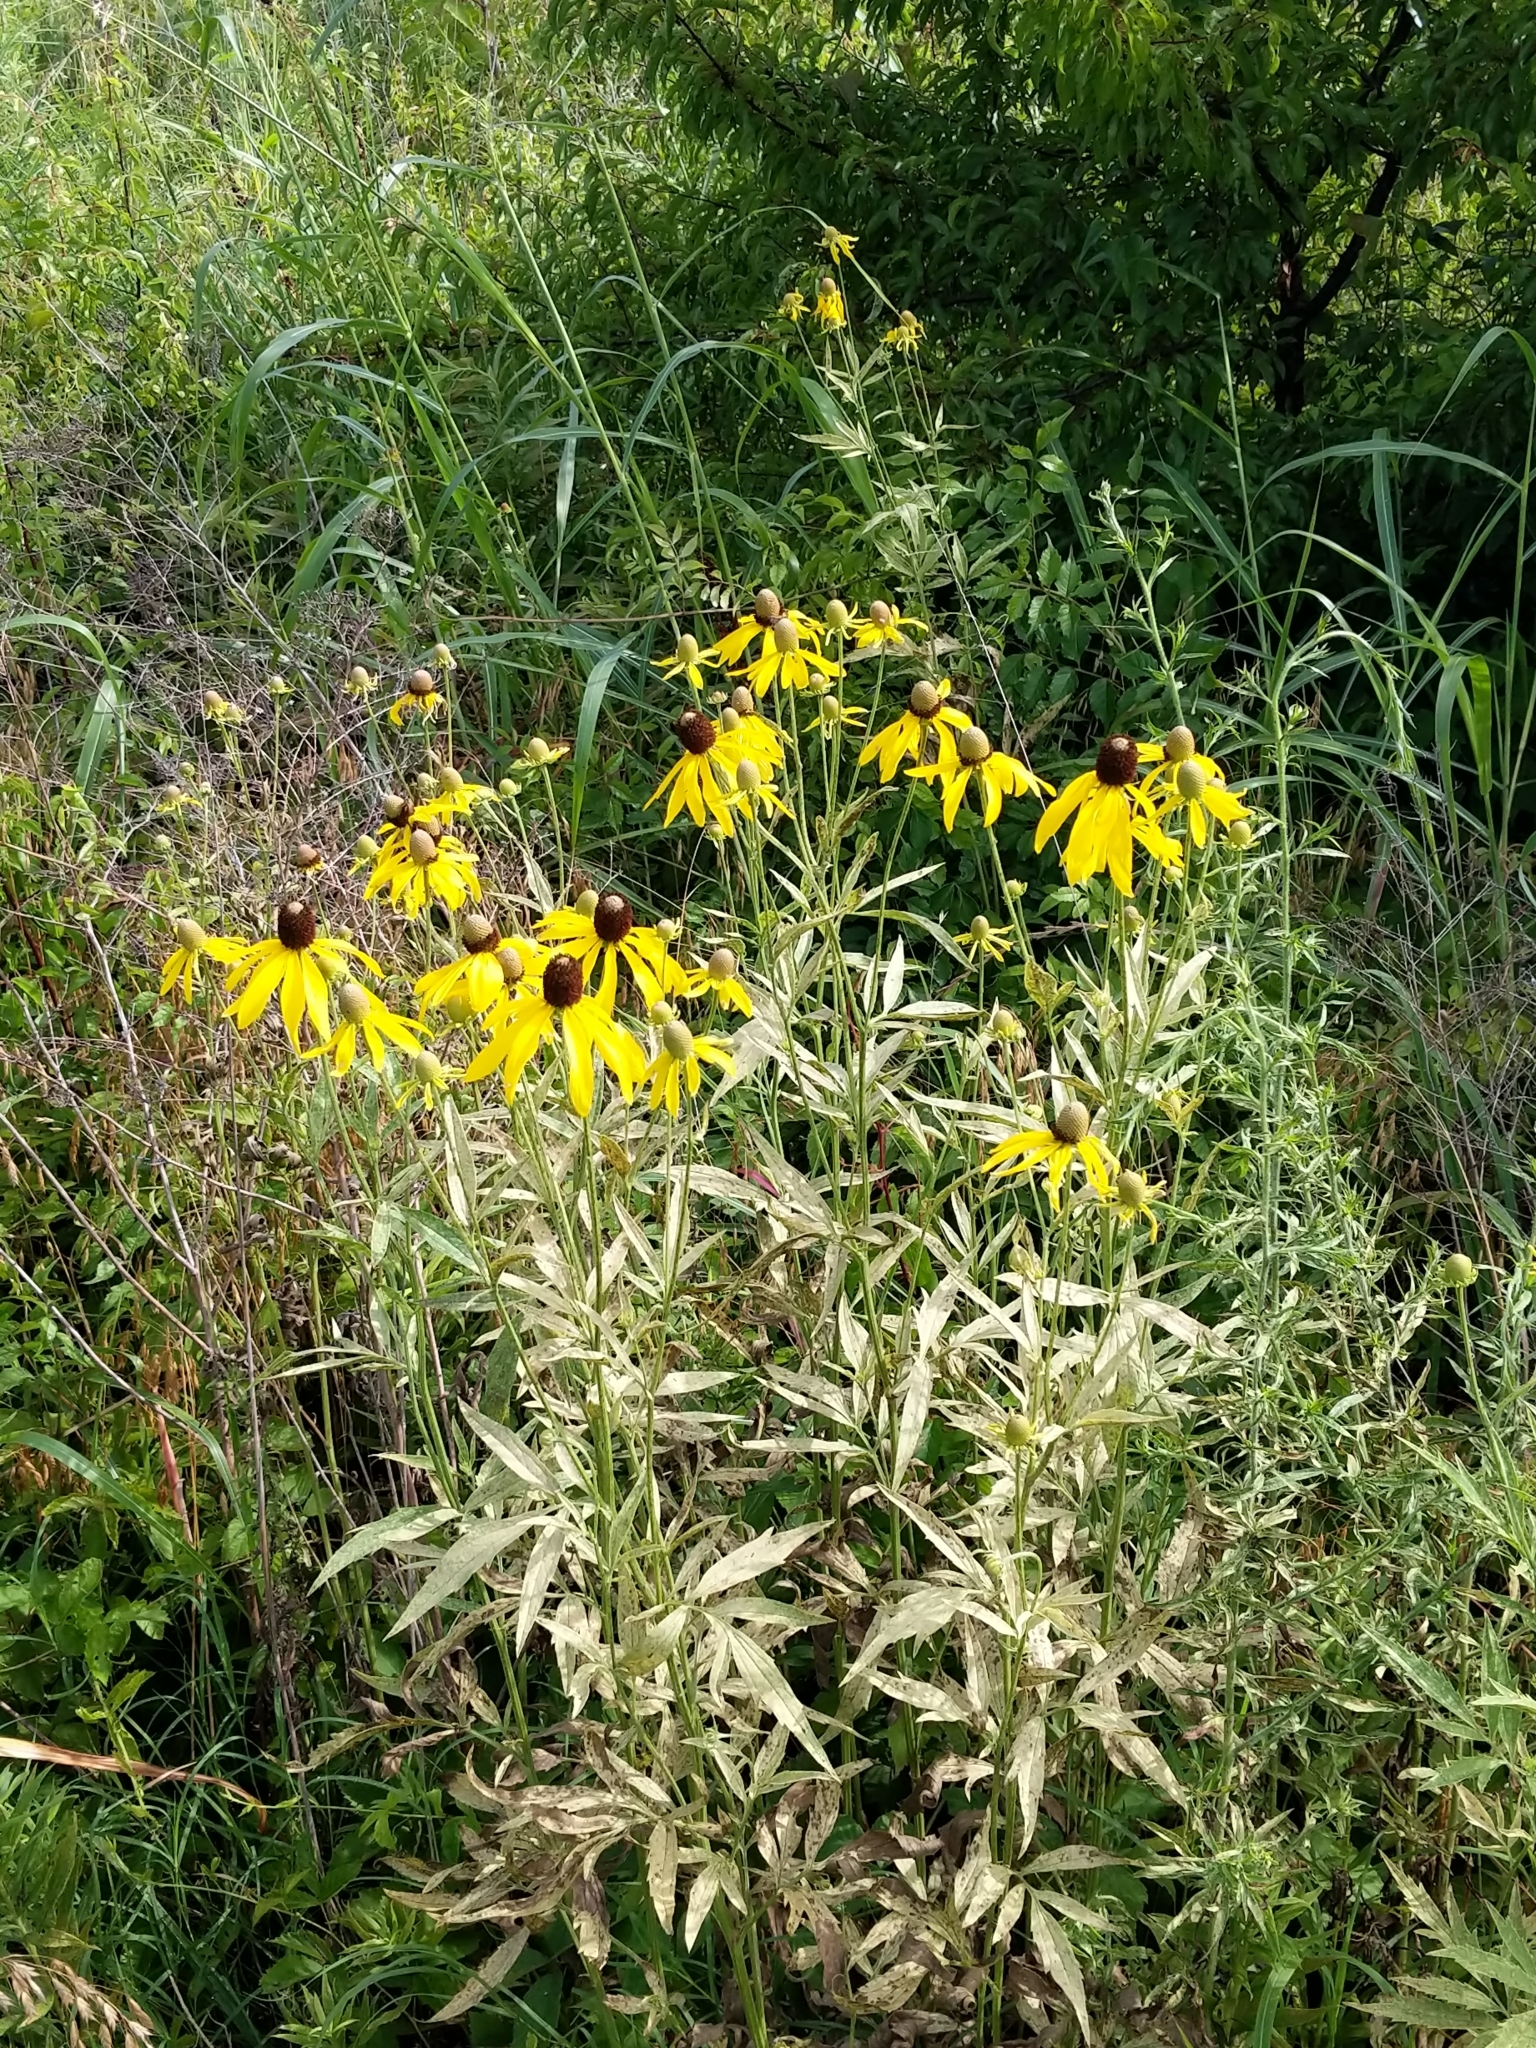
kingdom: Plantae
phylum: Tracheophyta
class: Magnoliopsida
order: Asterales
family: Asteraceae
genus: Ratibida
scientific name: Ratibida pinnata
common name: Drooping prairie-coneflower
